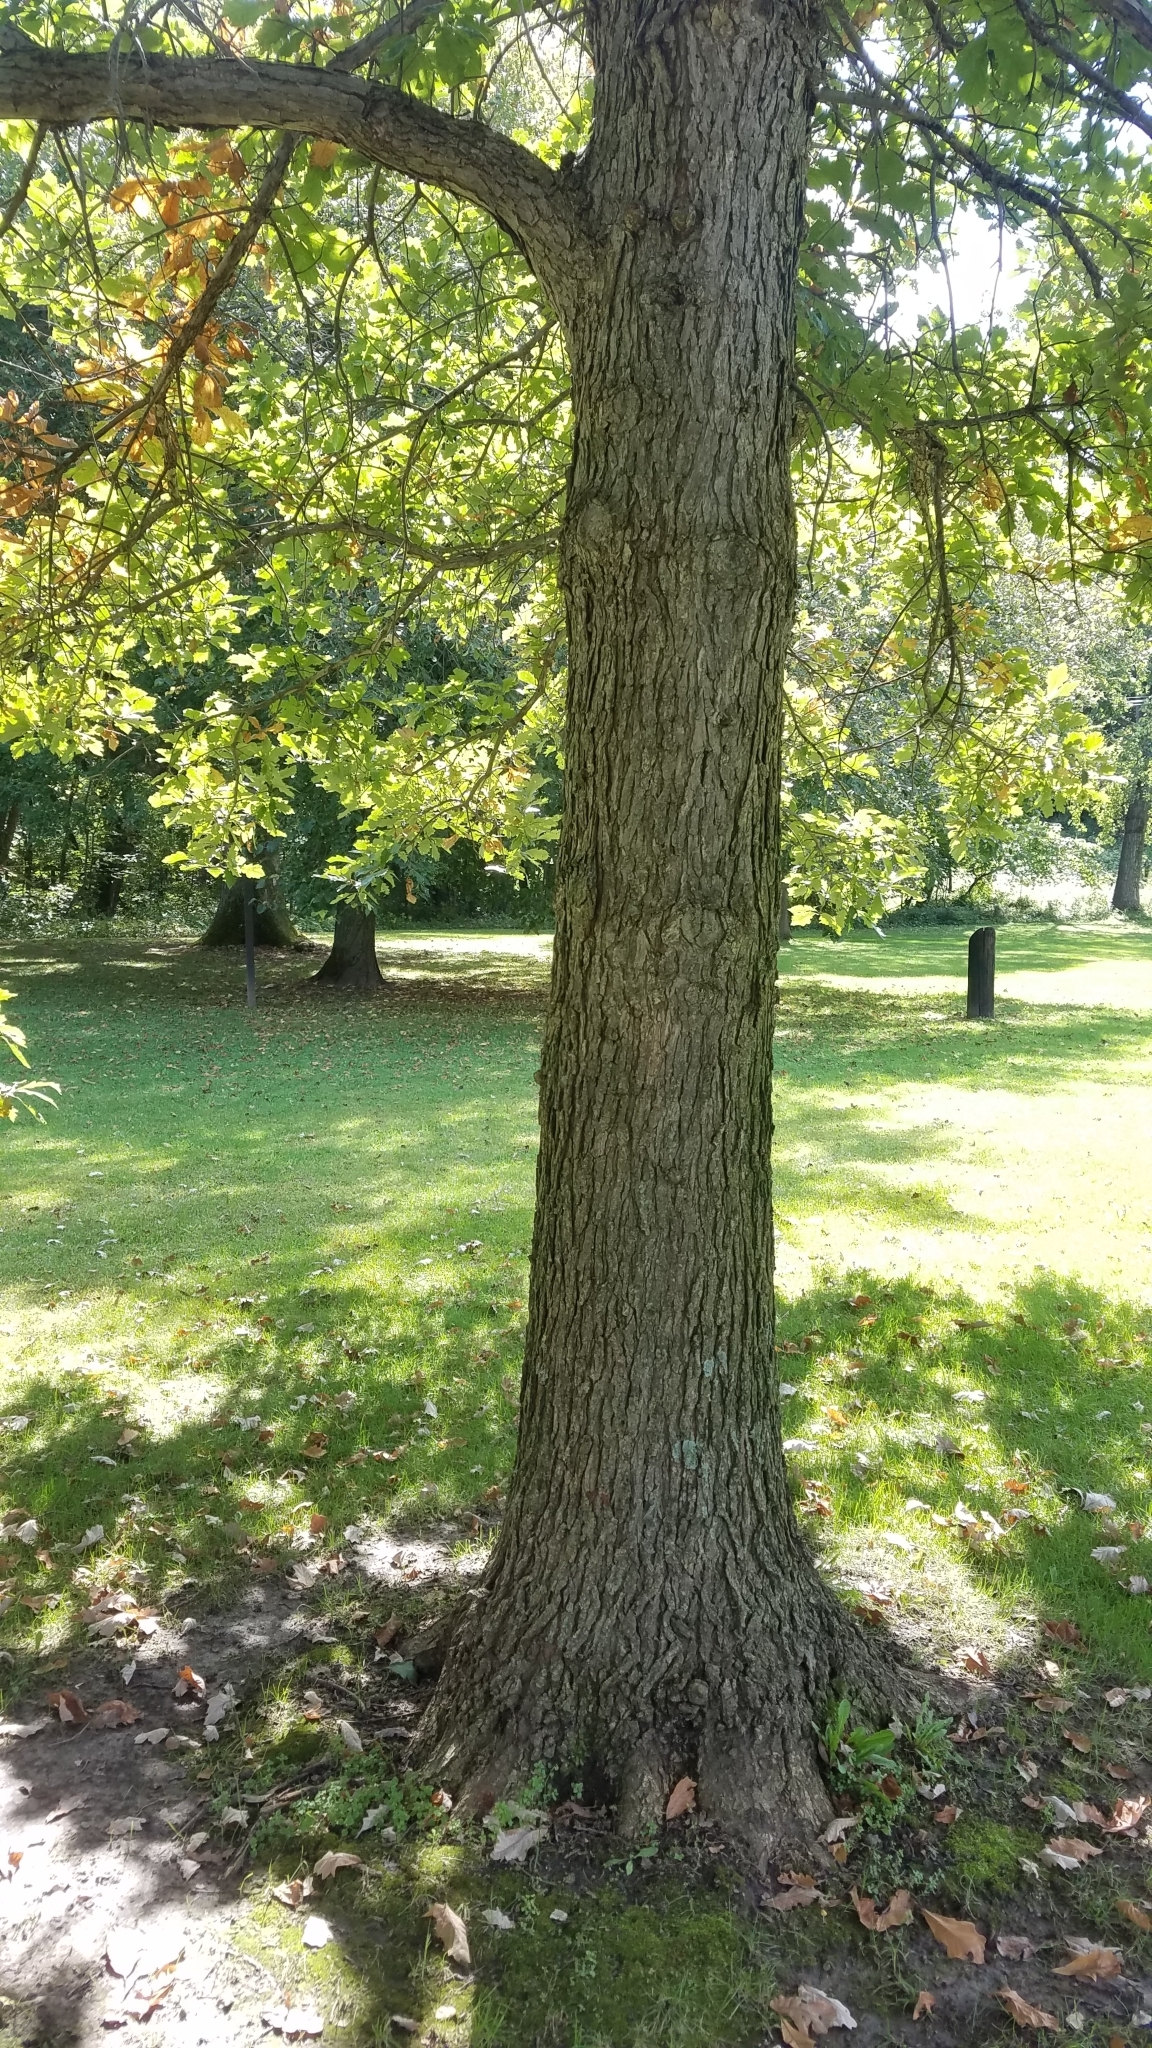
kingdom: Plantae
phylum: Tracheophyta
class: Magnoliopsida
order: Fagales
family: Fagaceae
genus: Quercus
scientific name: Quercus bicolor
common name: Swamp white oak
